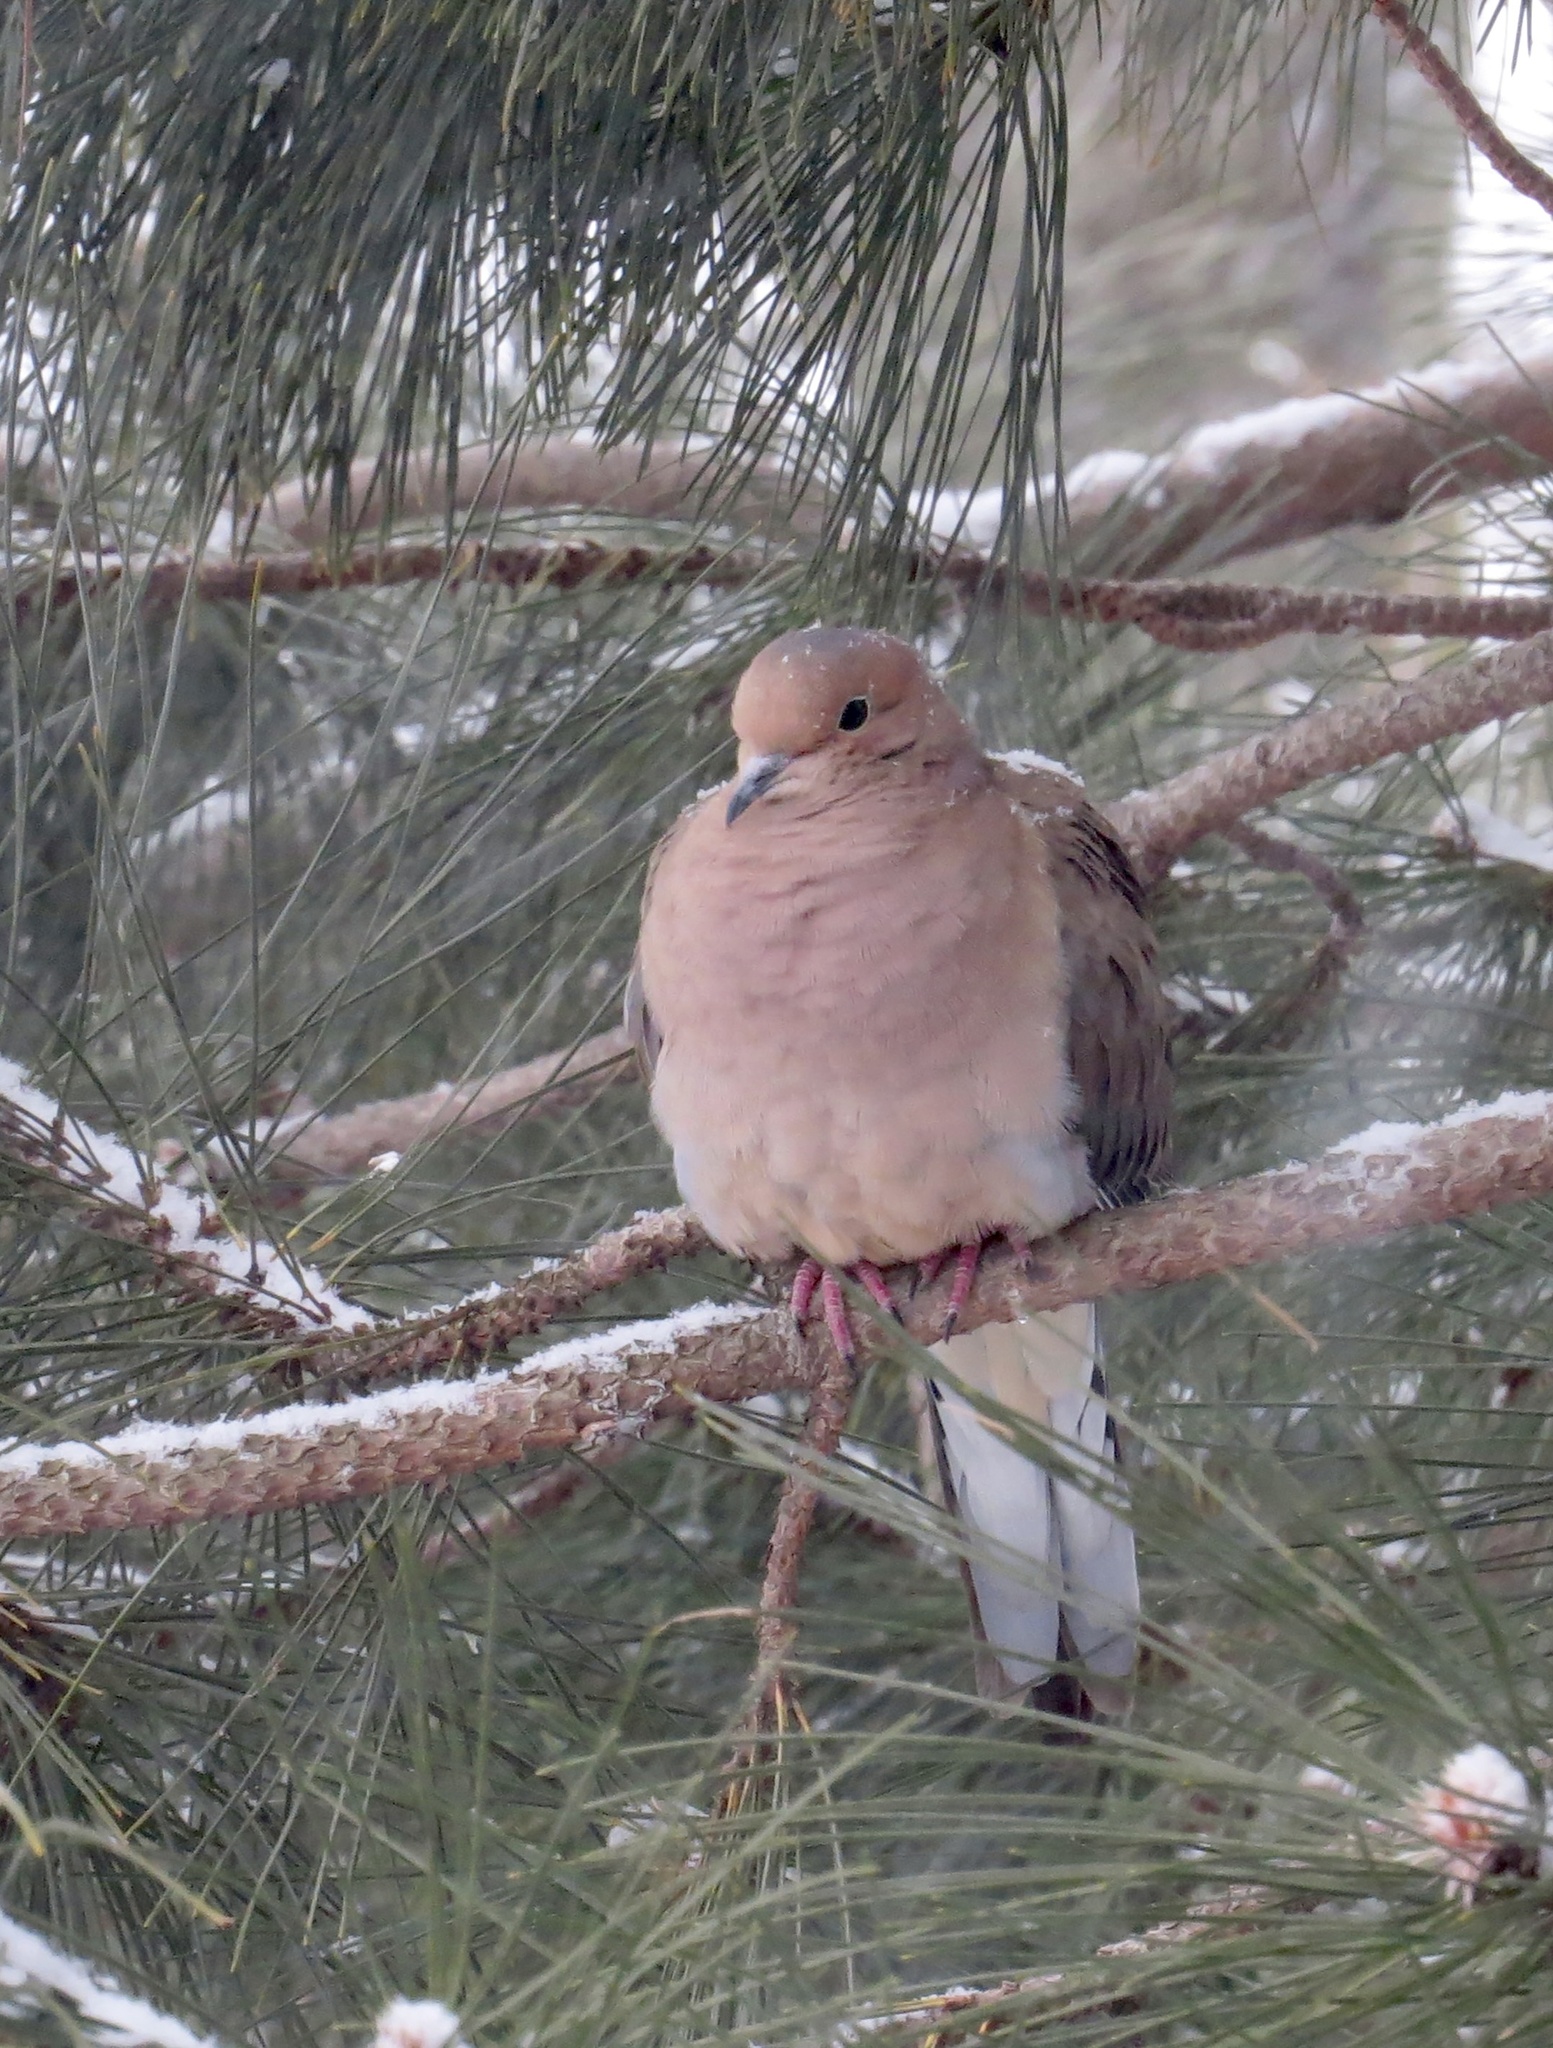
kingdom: Animalia
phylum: Chordata
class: Aves
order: Columbiformes
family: Columbidae
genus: Zenaida
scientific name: Zenaida macroura
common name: Mourning dove
